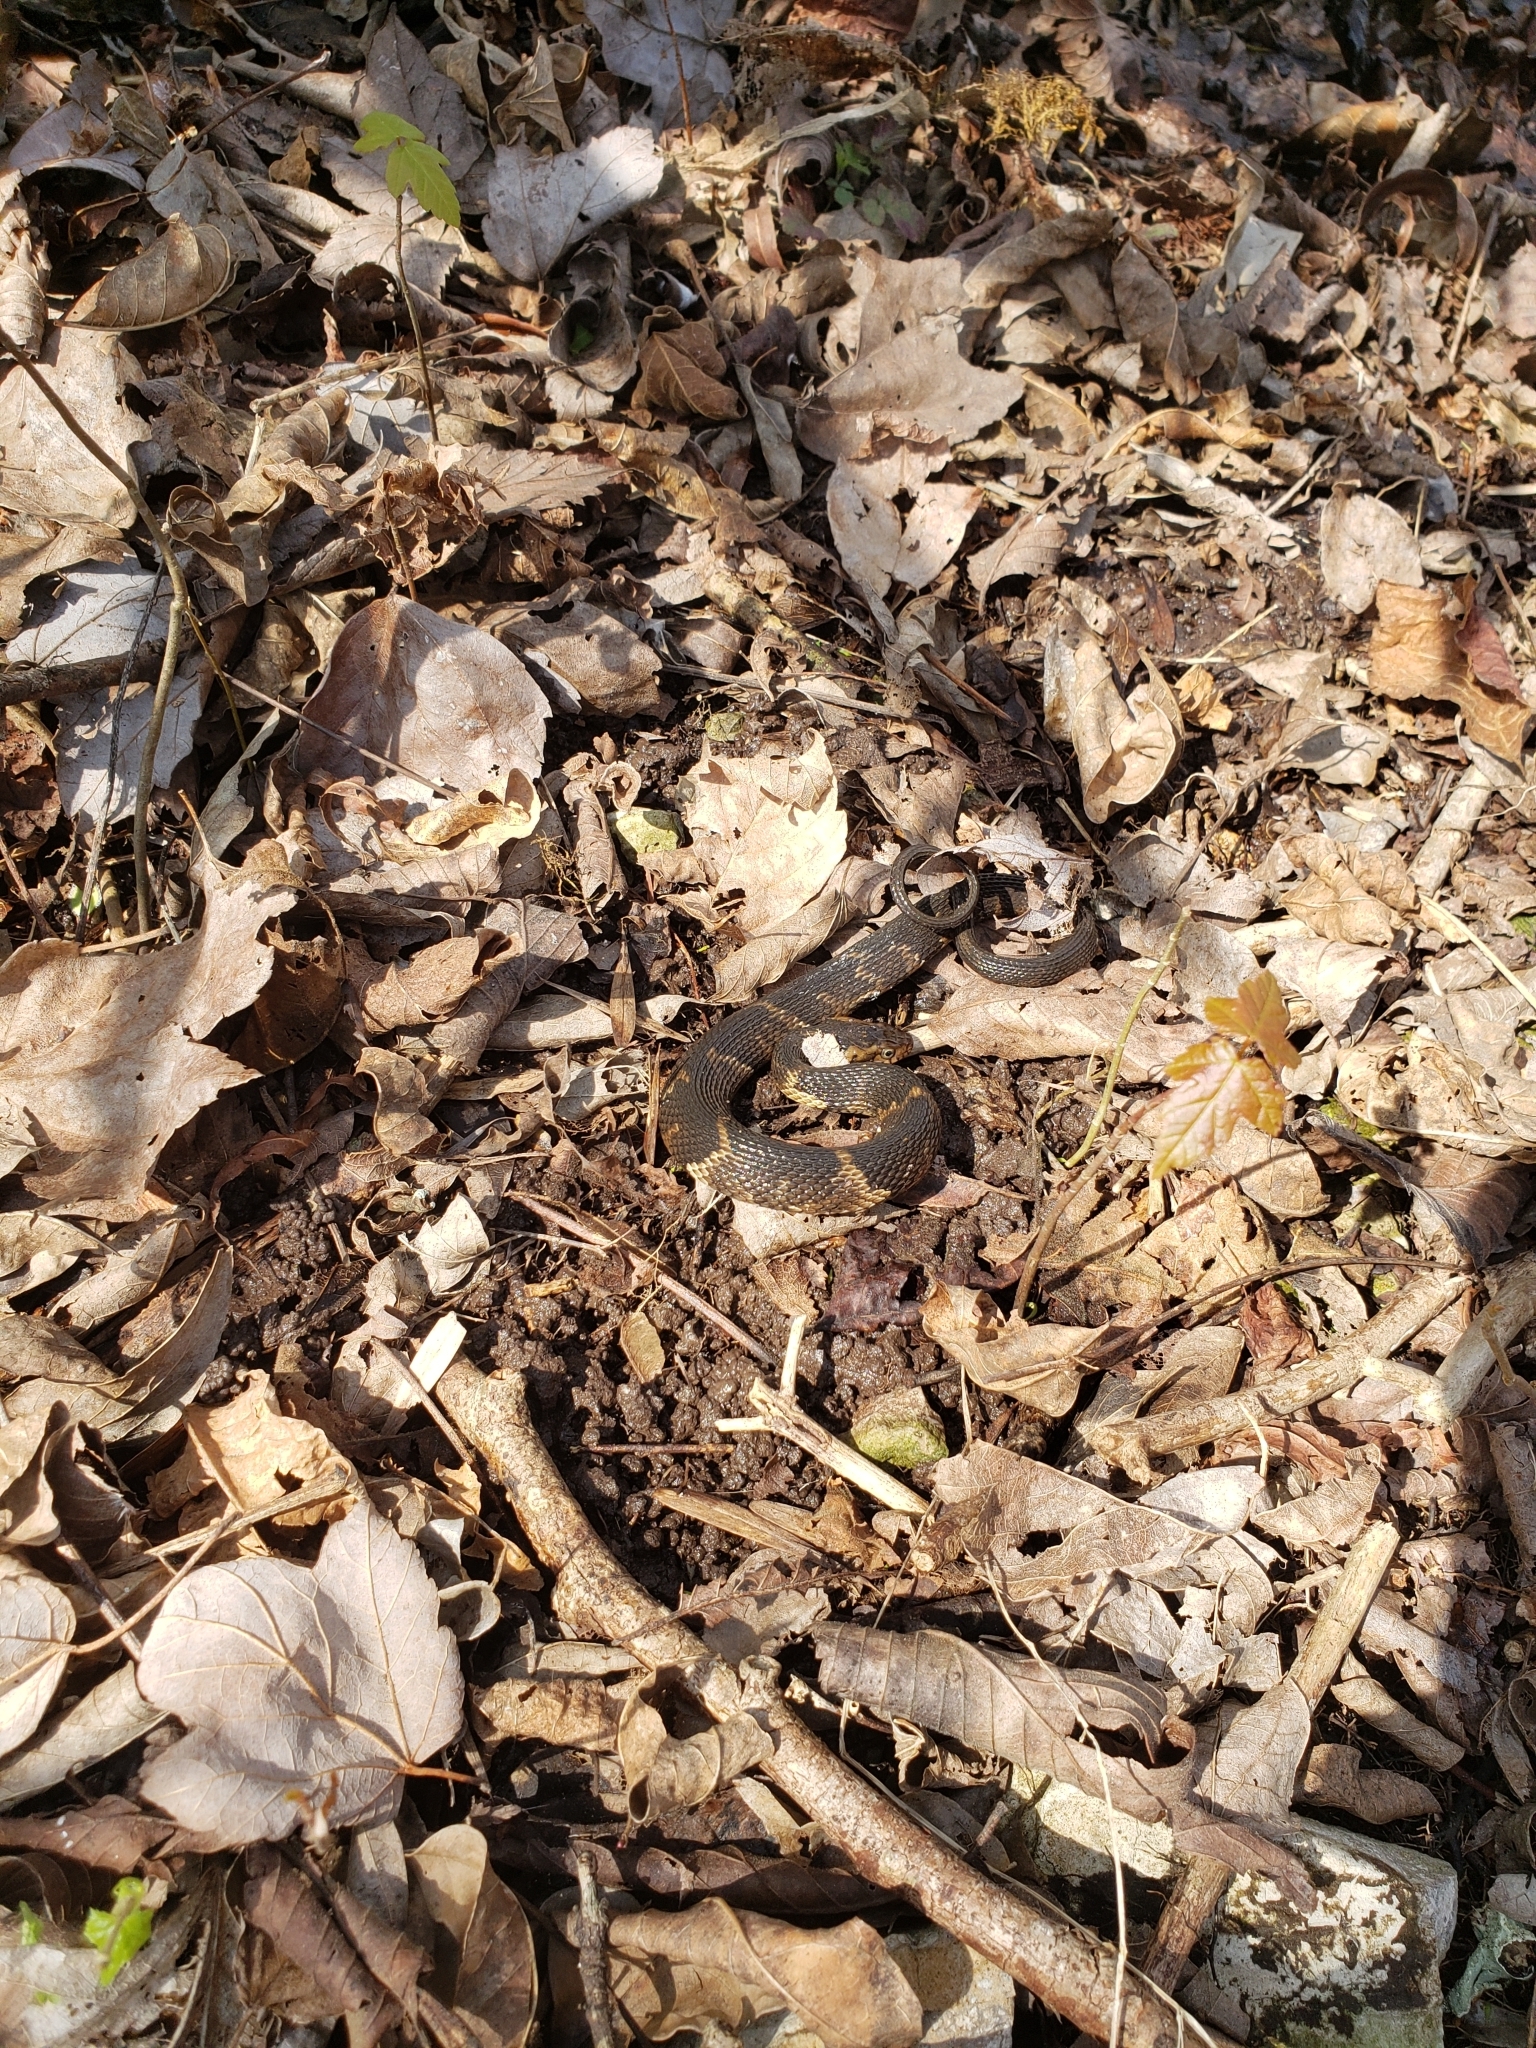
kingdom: Animalia
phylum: Chordata
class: Squamata
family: Colubridae
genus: Nerodia
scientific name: Nerodia fasciata
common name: Southern water snake
